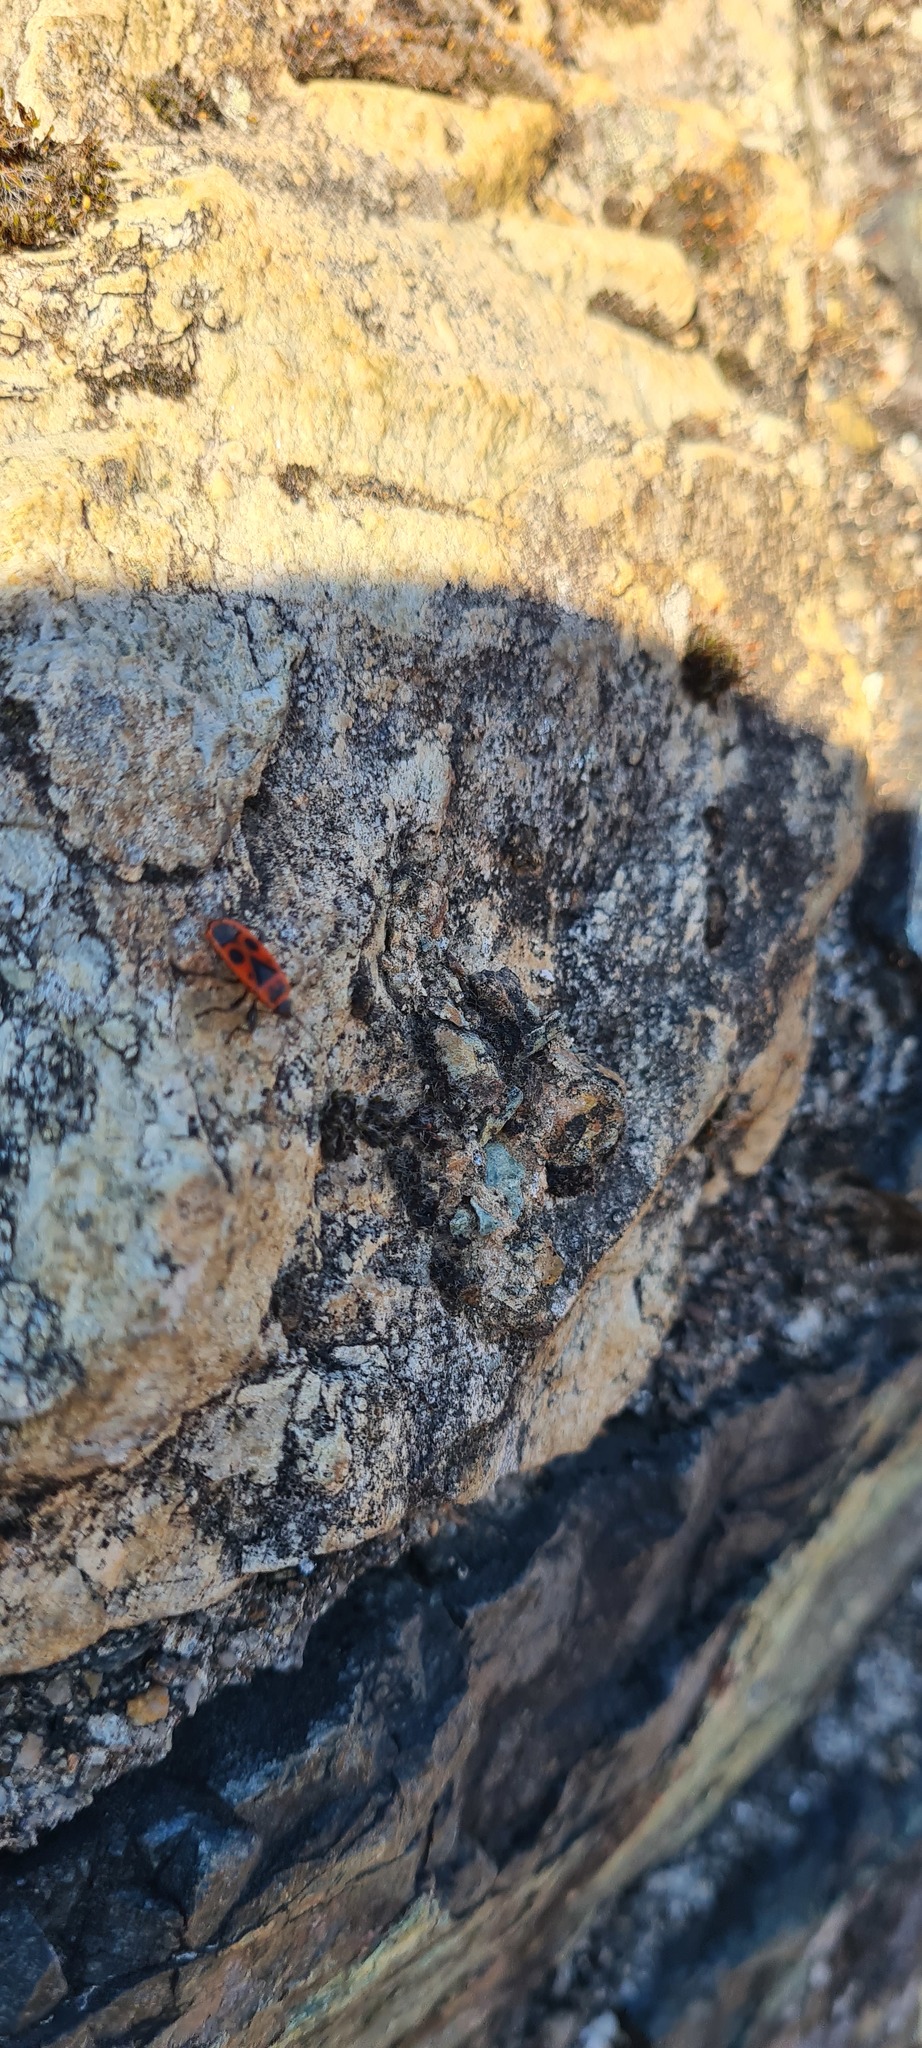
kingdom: Animalia
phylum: Arthropoda
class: Insecta
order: Hemiptera
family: Pyrrhocoridae
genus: Pyrrhocoris
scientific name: Pyrrhocoris apterus
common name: Firebug
